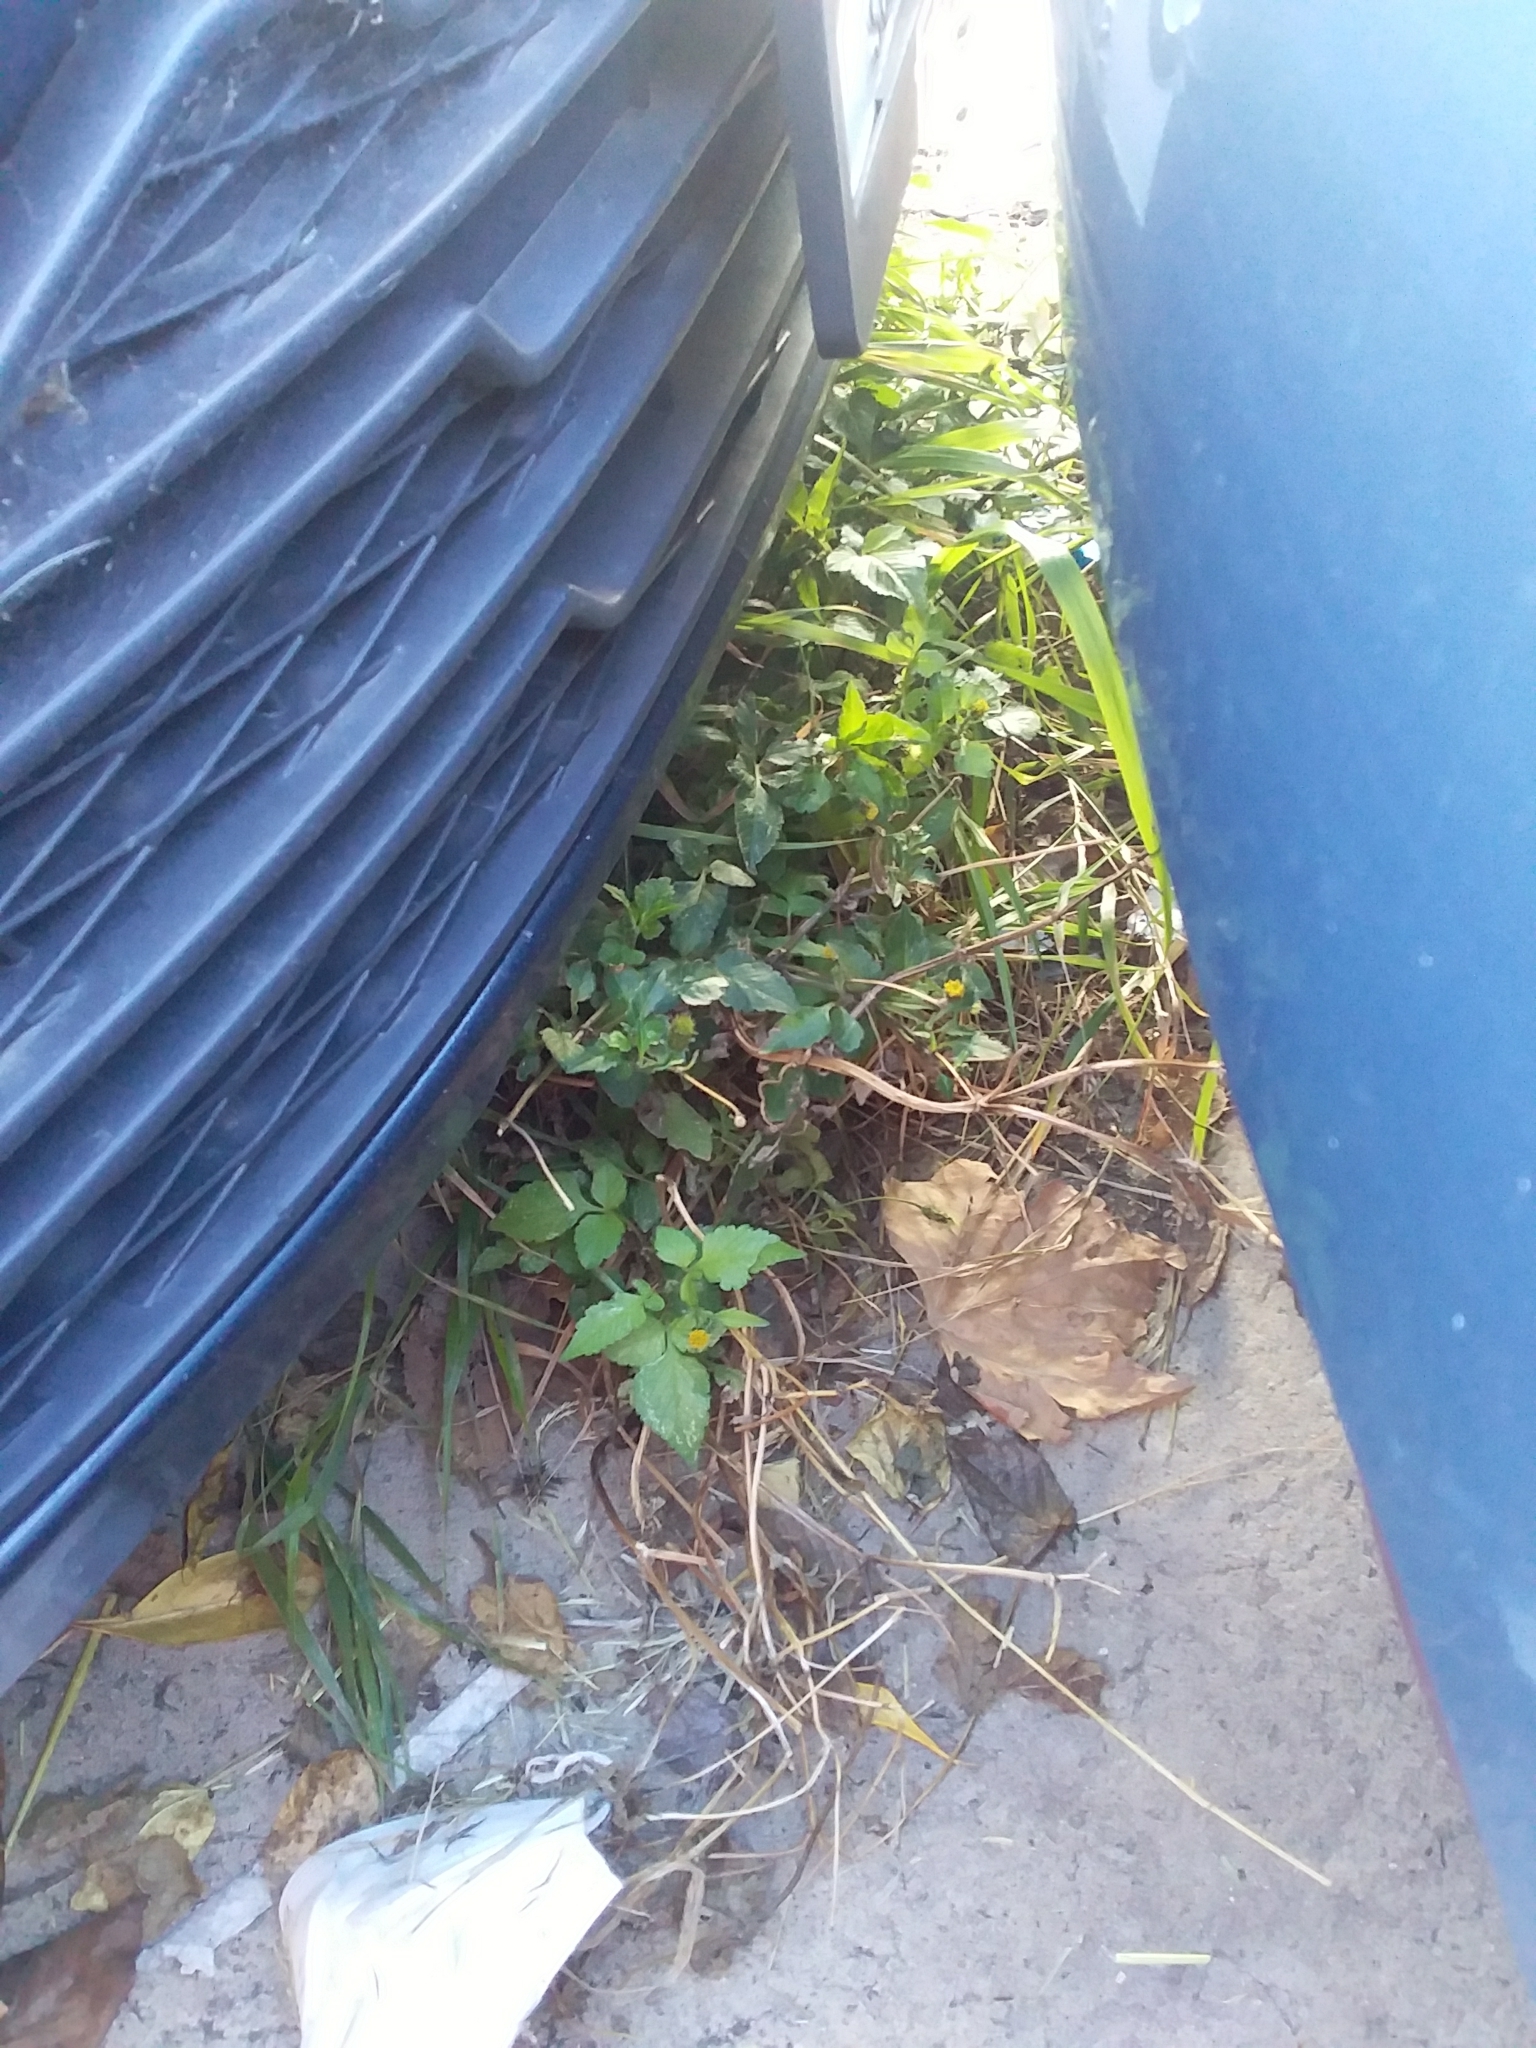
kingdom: Plantae
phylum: Tracheophyta
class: Magnoliopsida
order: Asterales
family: Asteraceae
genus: Bidens
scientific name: Bidens pilosa
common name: Black-jack
